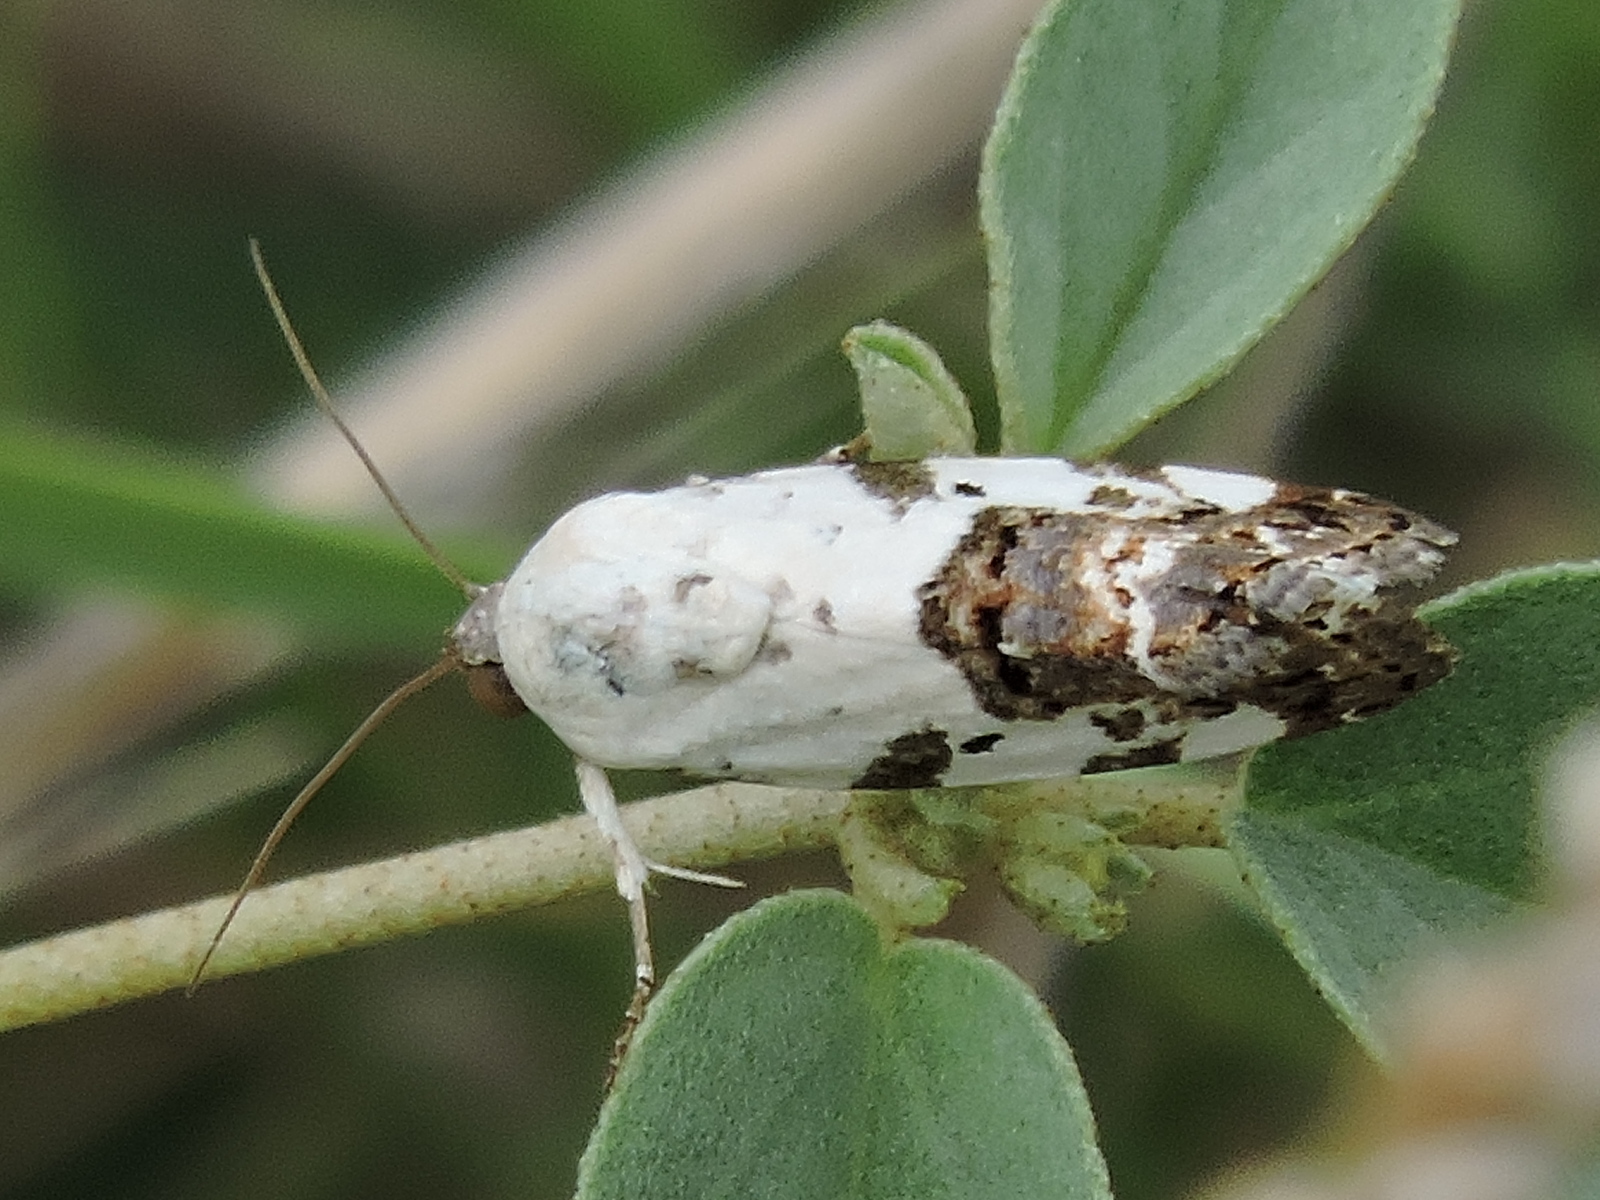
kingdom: Animalia
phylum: Arthropoda
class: Insecta
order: Lepidoptera
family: Noctuidae
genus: Acontia
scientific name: Acontia aprica
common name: Nun
